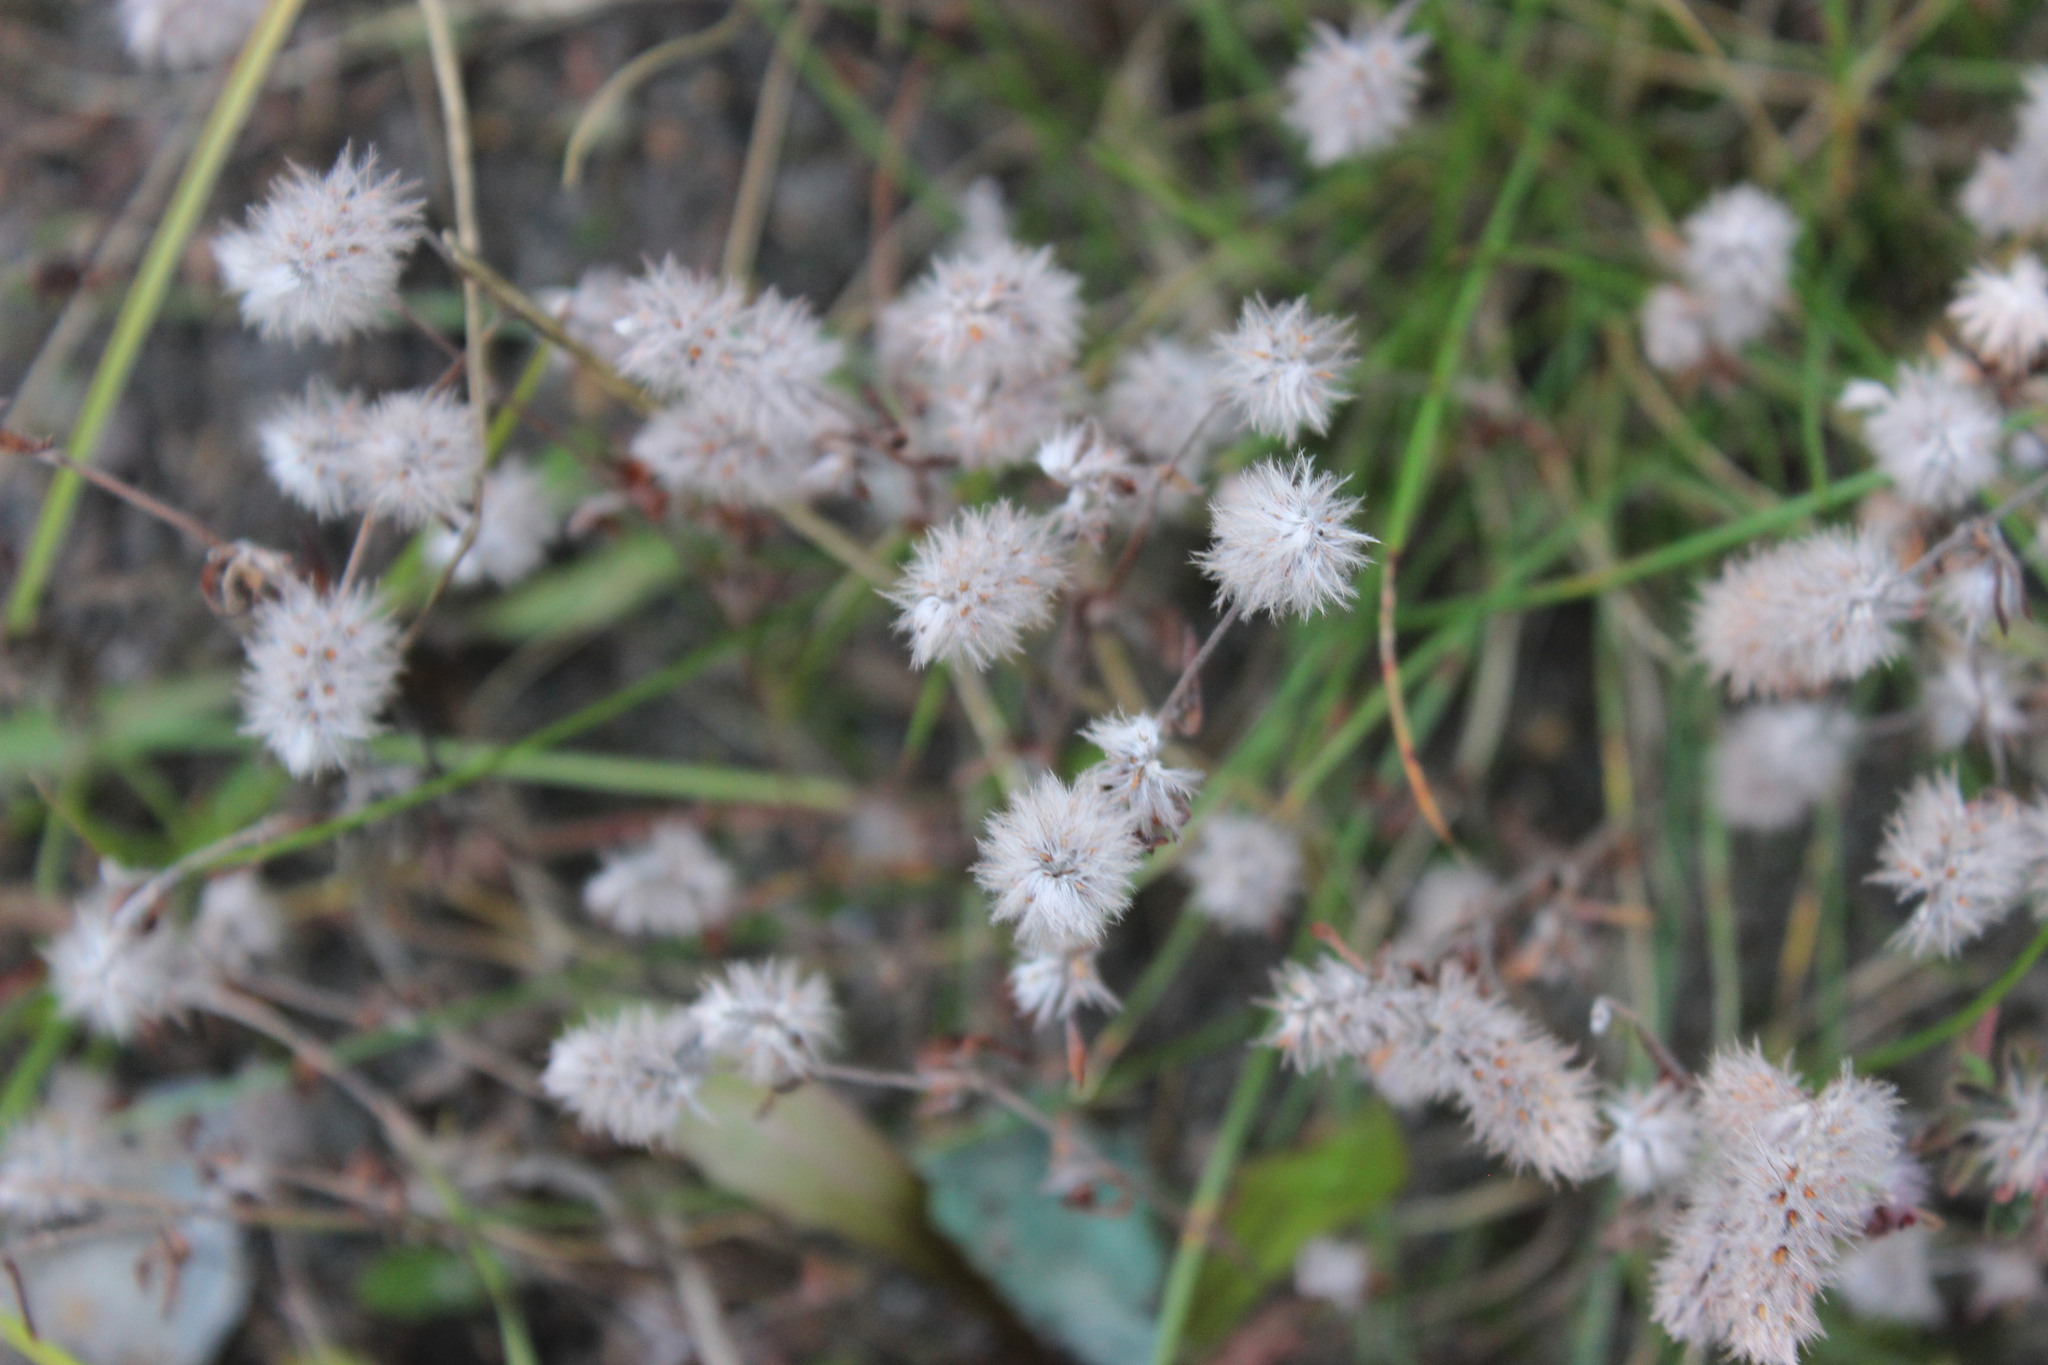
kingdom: Plantae
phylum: Tracheophyta
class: Magnoliopsida
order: Fabales
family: Fabaceae
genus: Trifolium
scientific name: Trifolium arvense
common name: Hare's-foot clover
